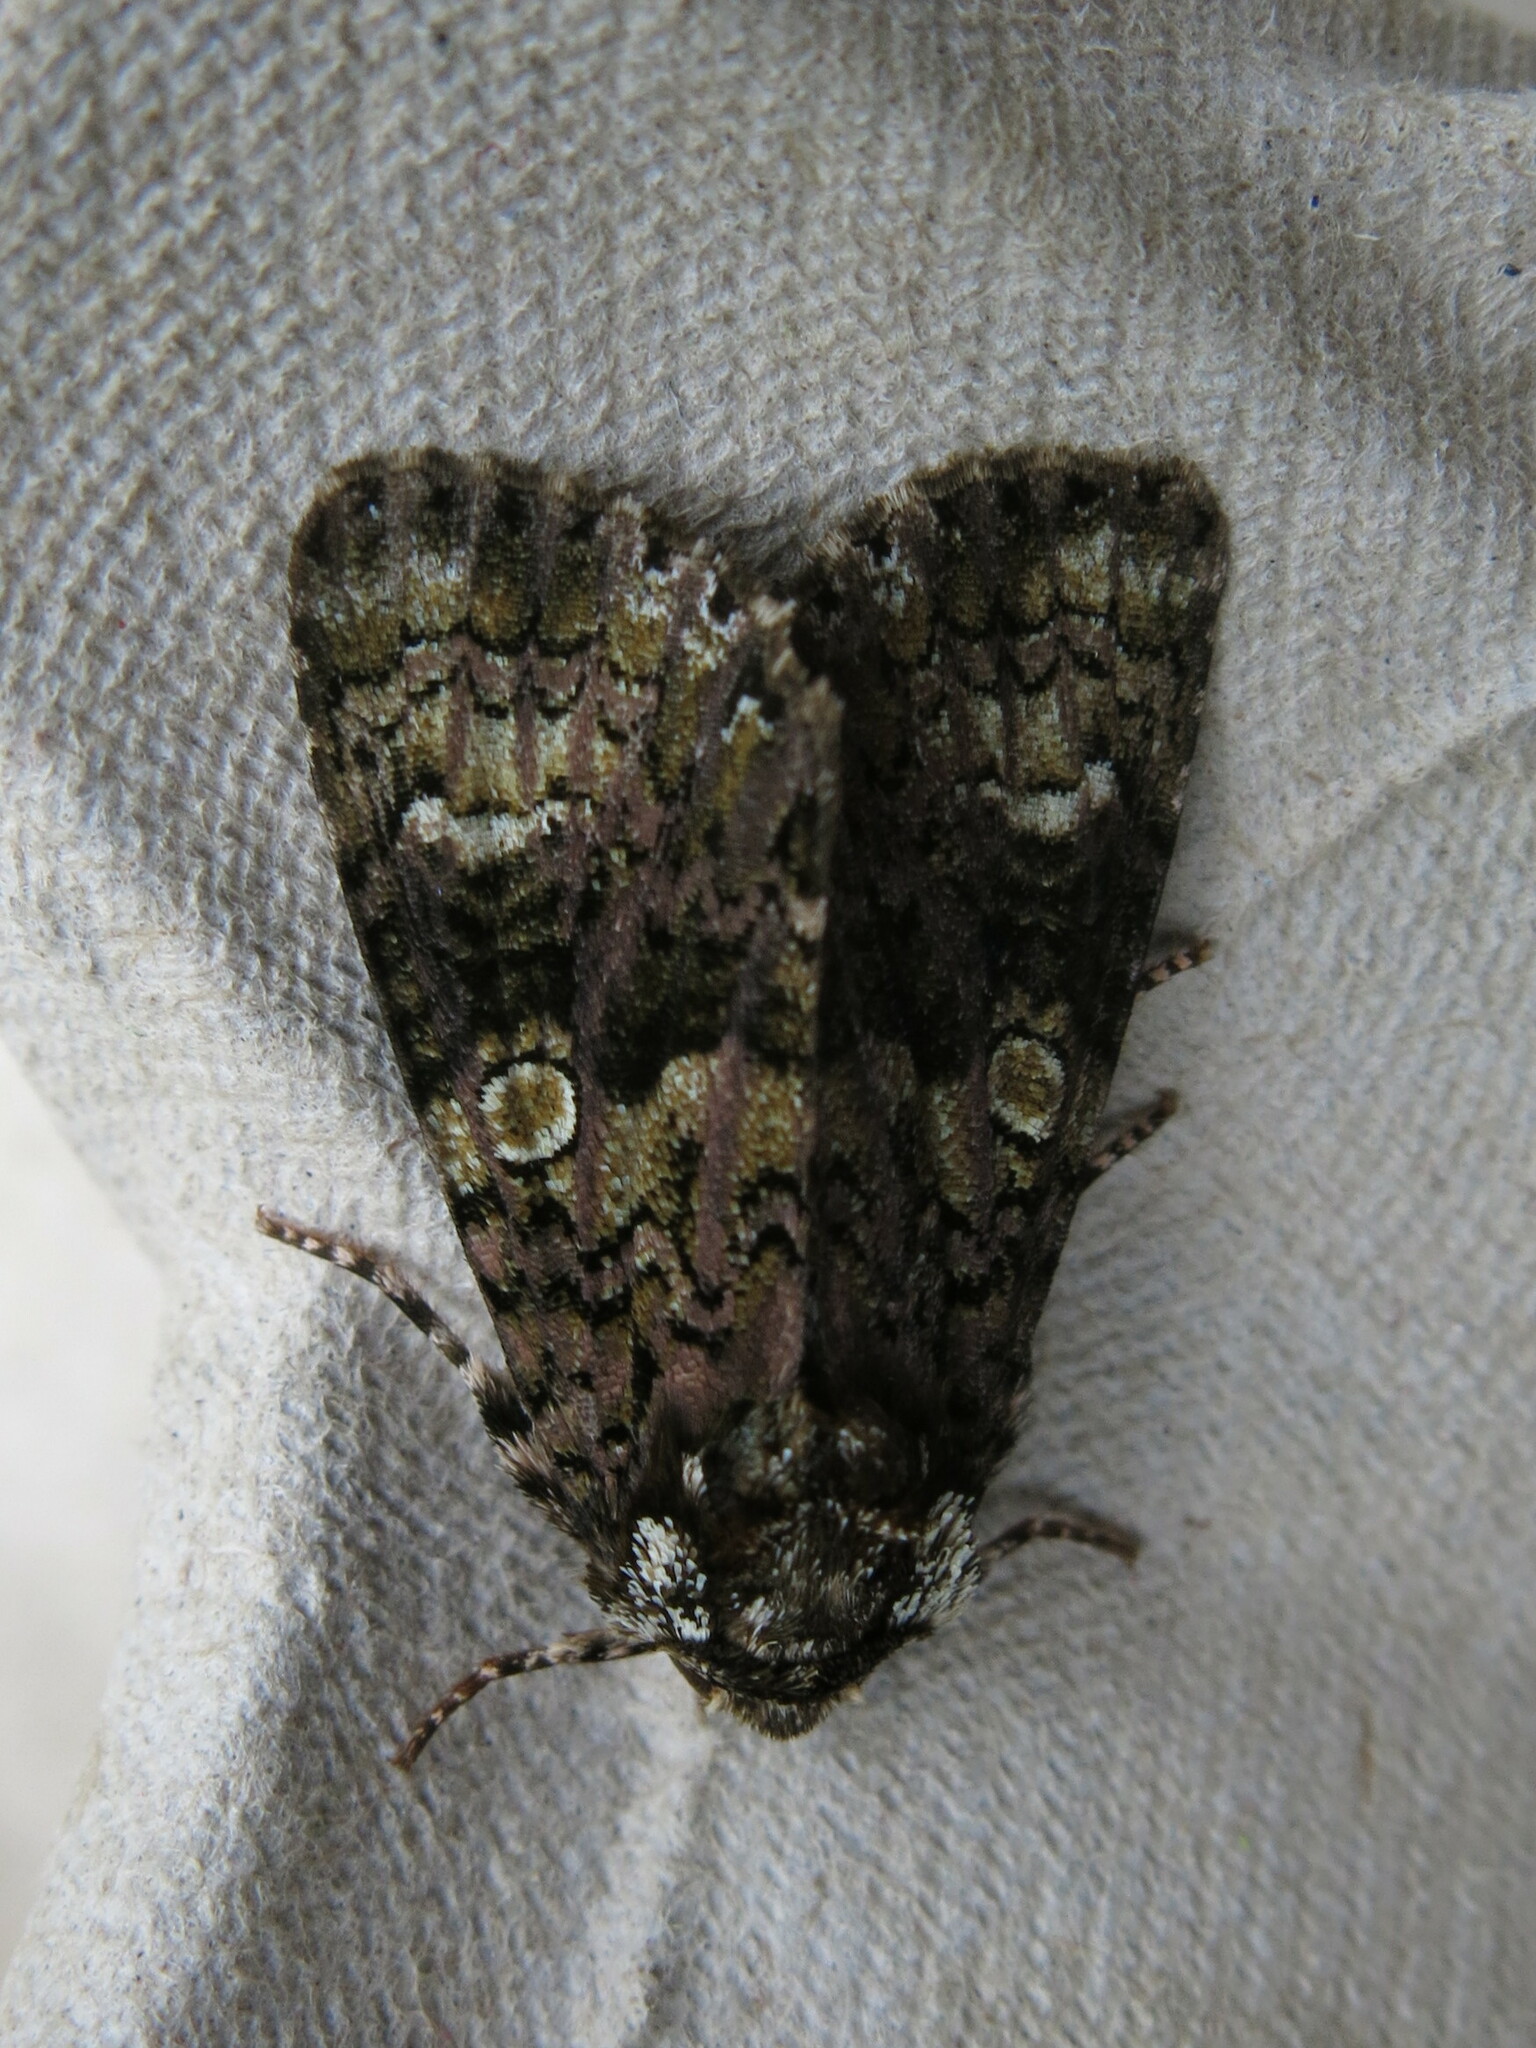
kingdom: Animalia
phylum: Arthropoda
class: Insecta
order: Lepidoptera
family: Noctuidae
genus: Craniophora
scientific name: Craniophora ligustri
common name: Coronet
